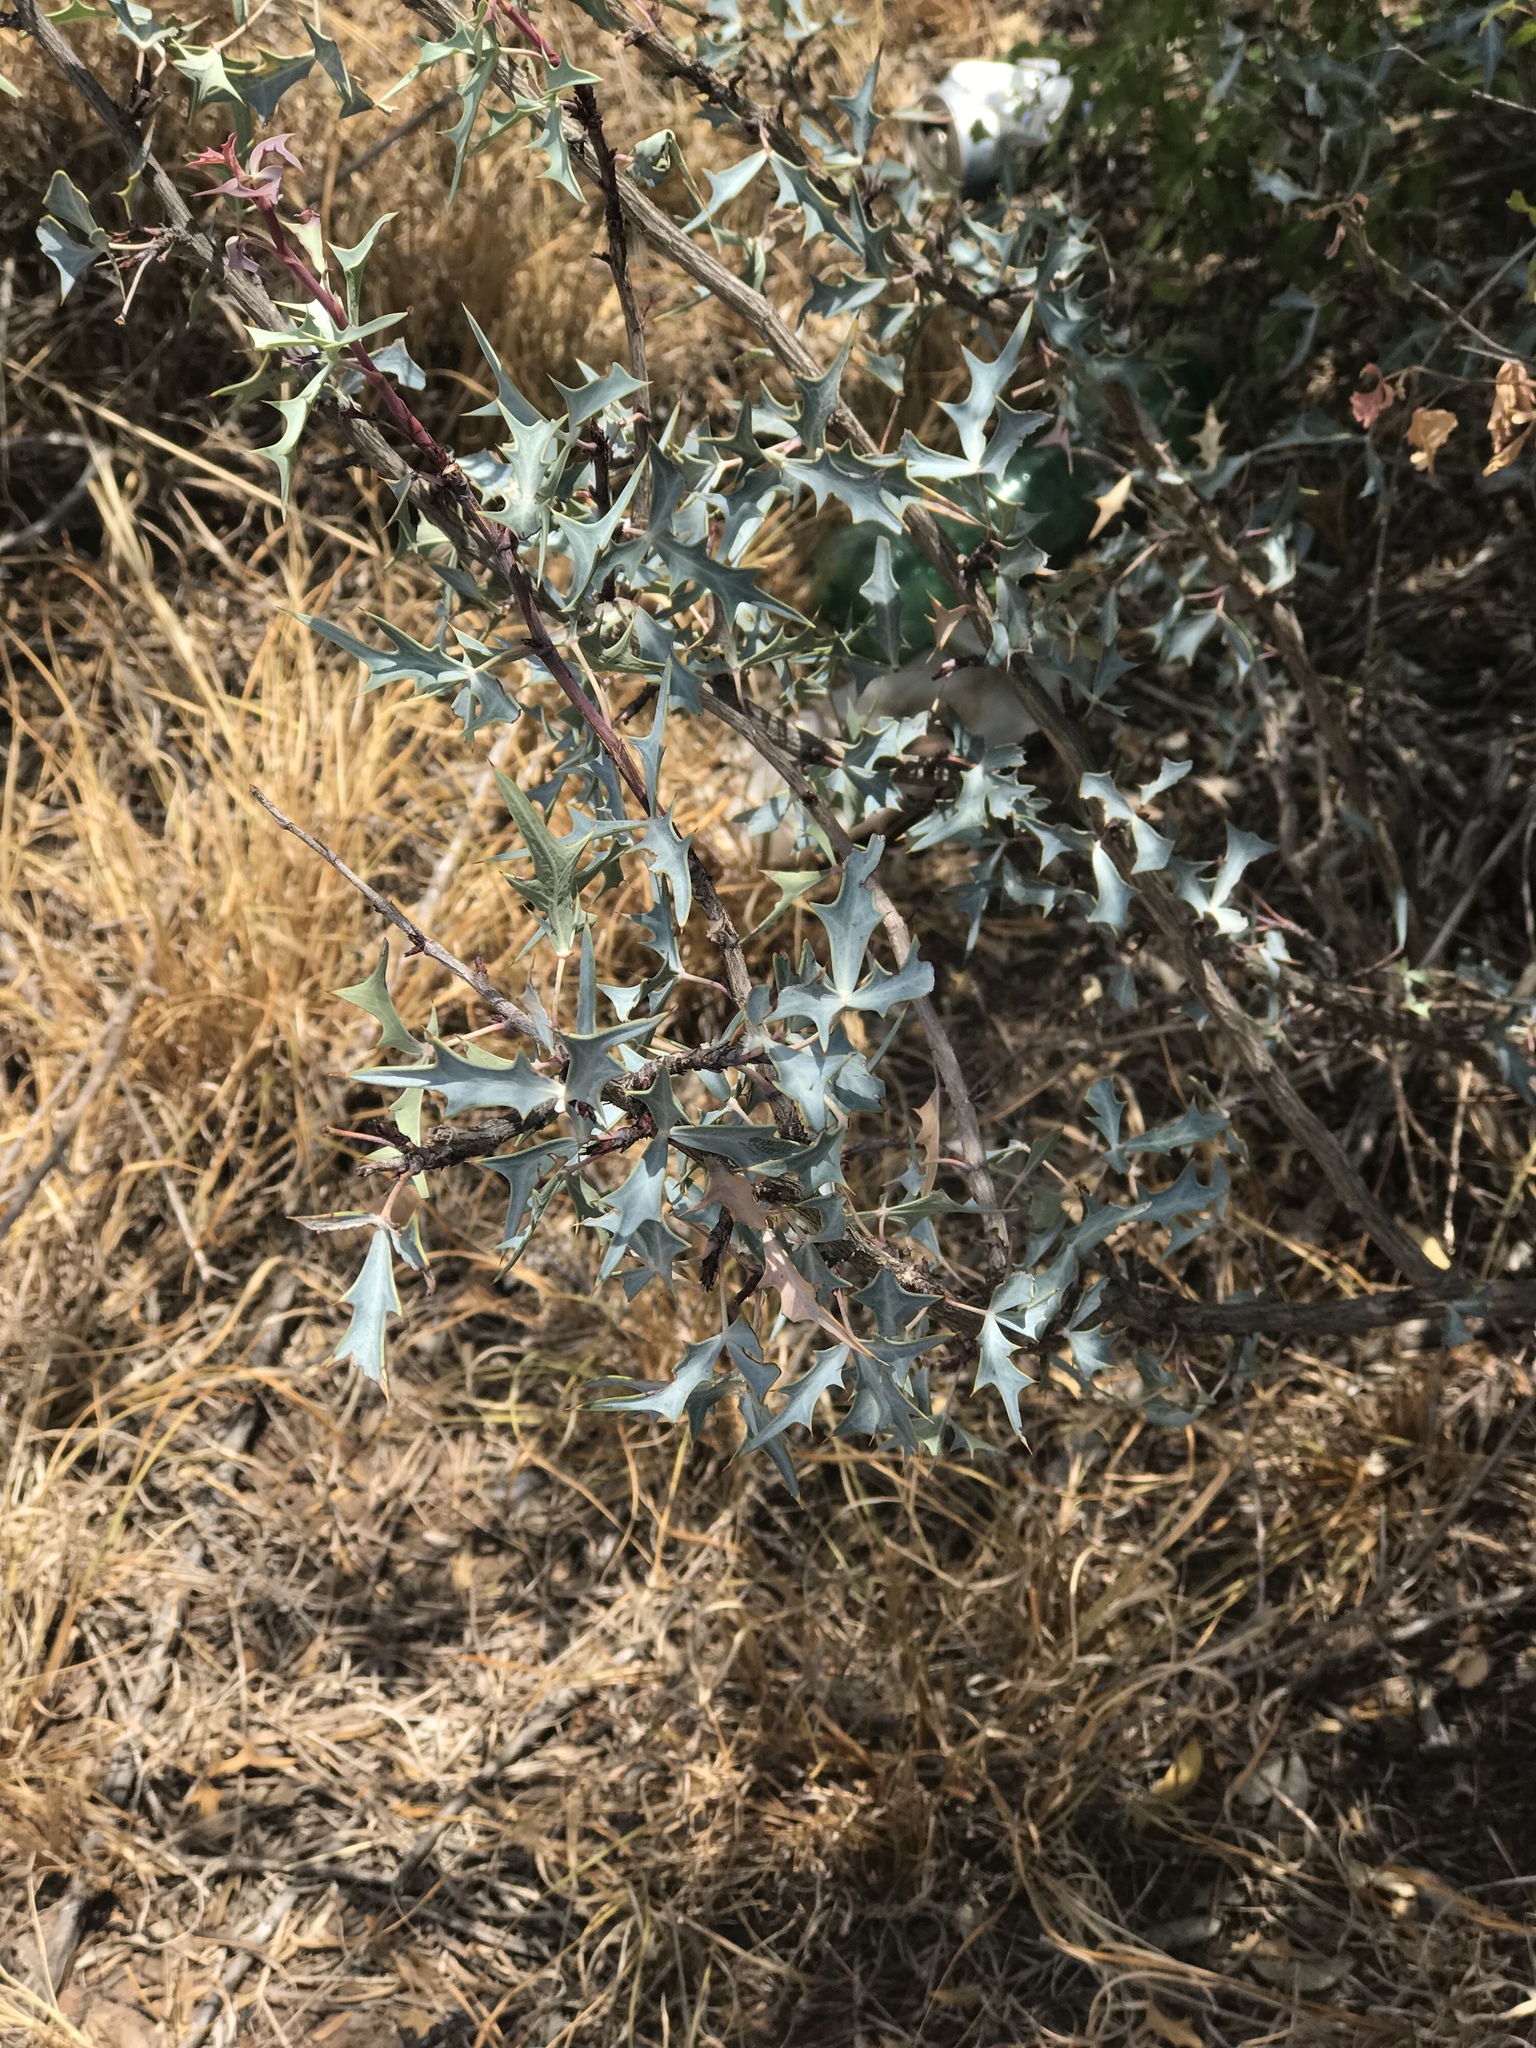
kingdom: Plantae
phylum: Tracheophyta
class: Magnoliopsida
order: Ranunculales
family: Berberidaceae
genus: Alloberberis
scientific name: Alloberberis trifoliolata
